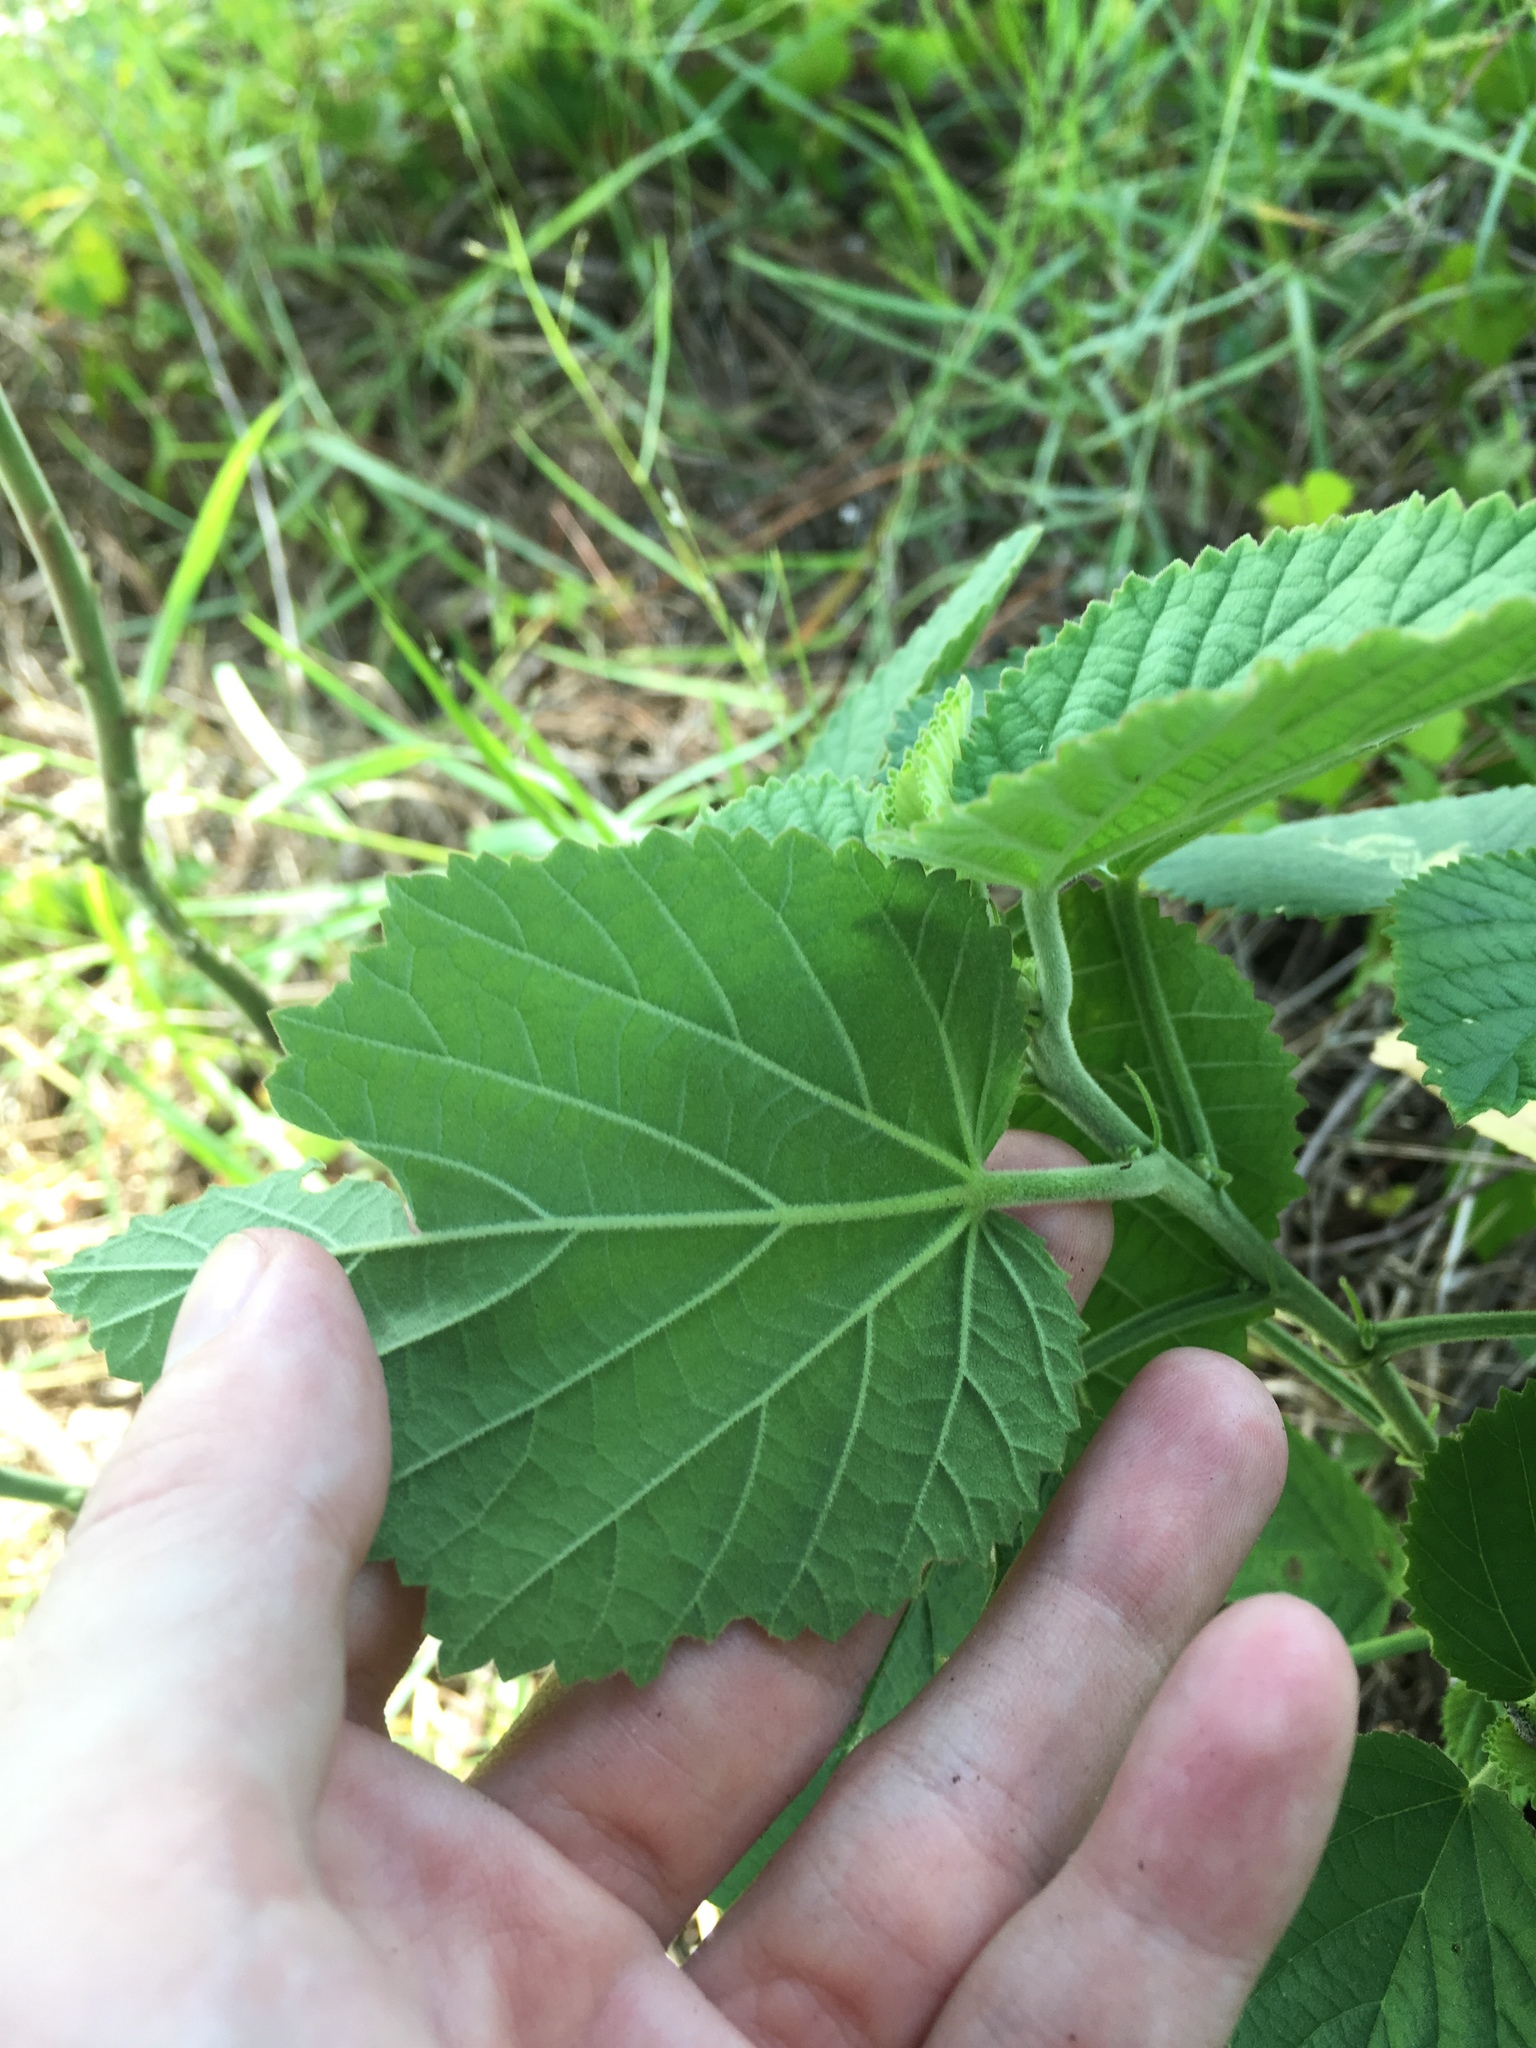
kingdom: Plantae
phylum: Tracheophyta
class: Magnoliopsida
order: Malvales
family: Malvaceae
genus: Sida
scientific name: Sida cordifolia
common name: Ilima
